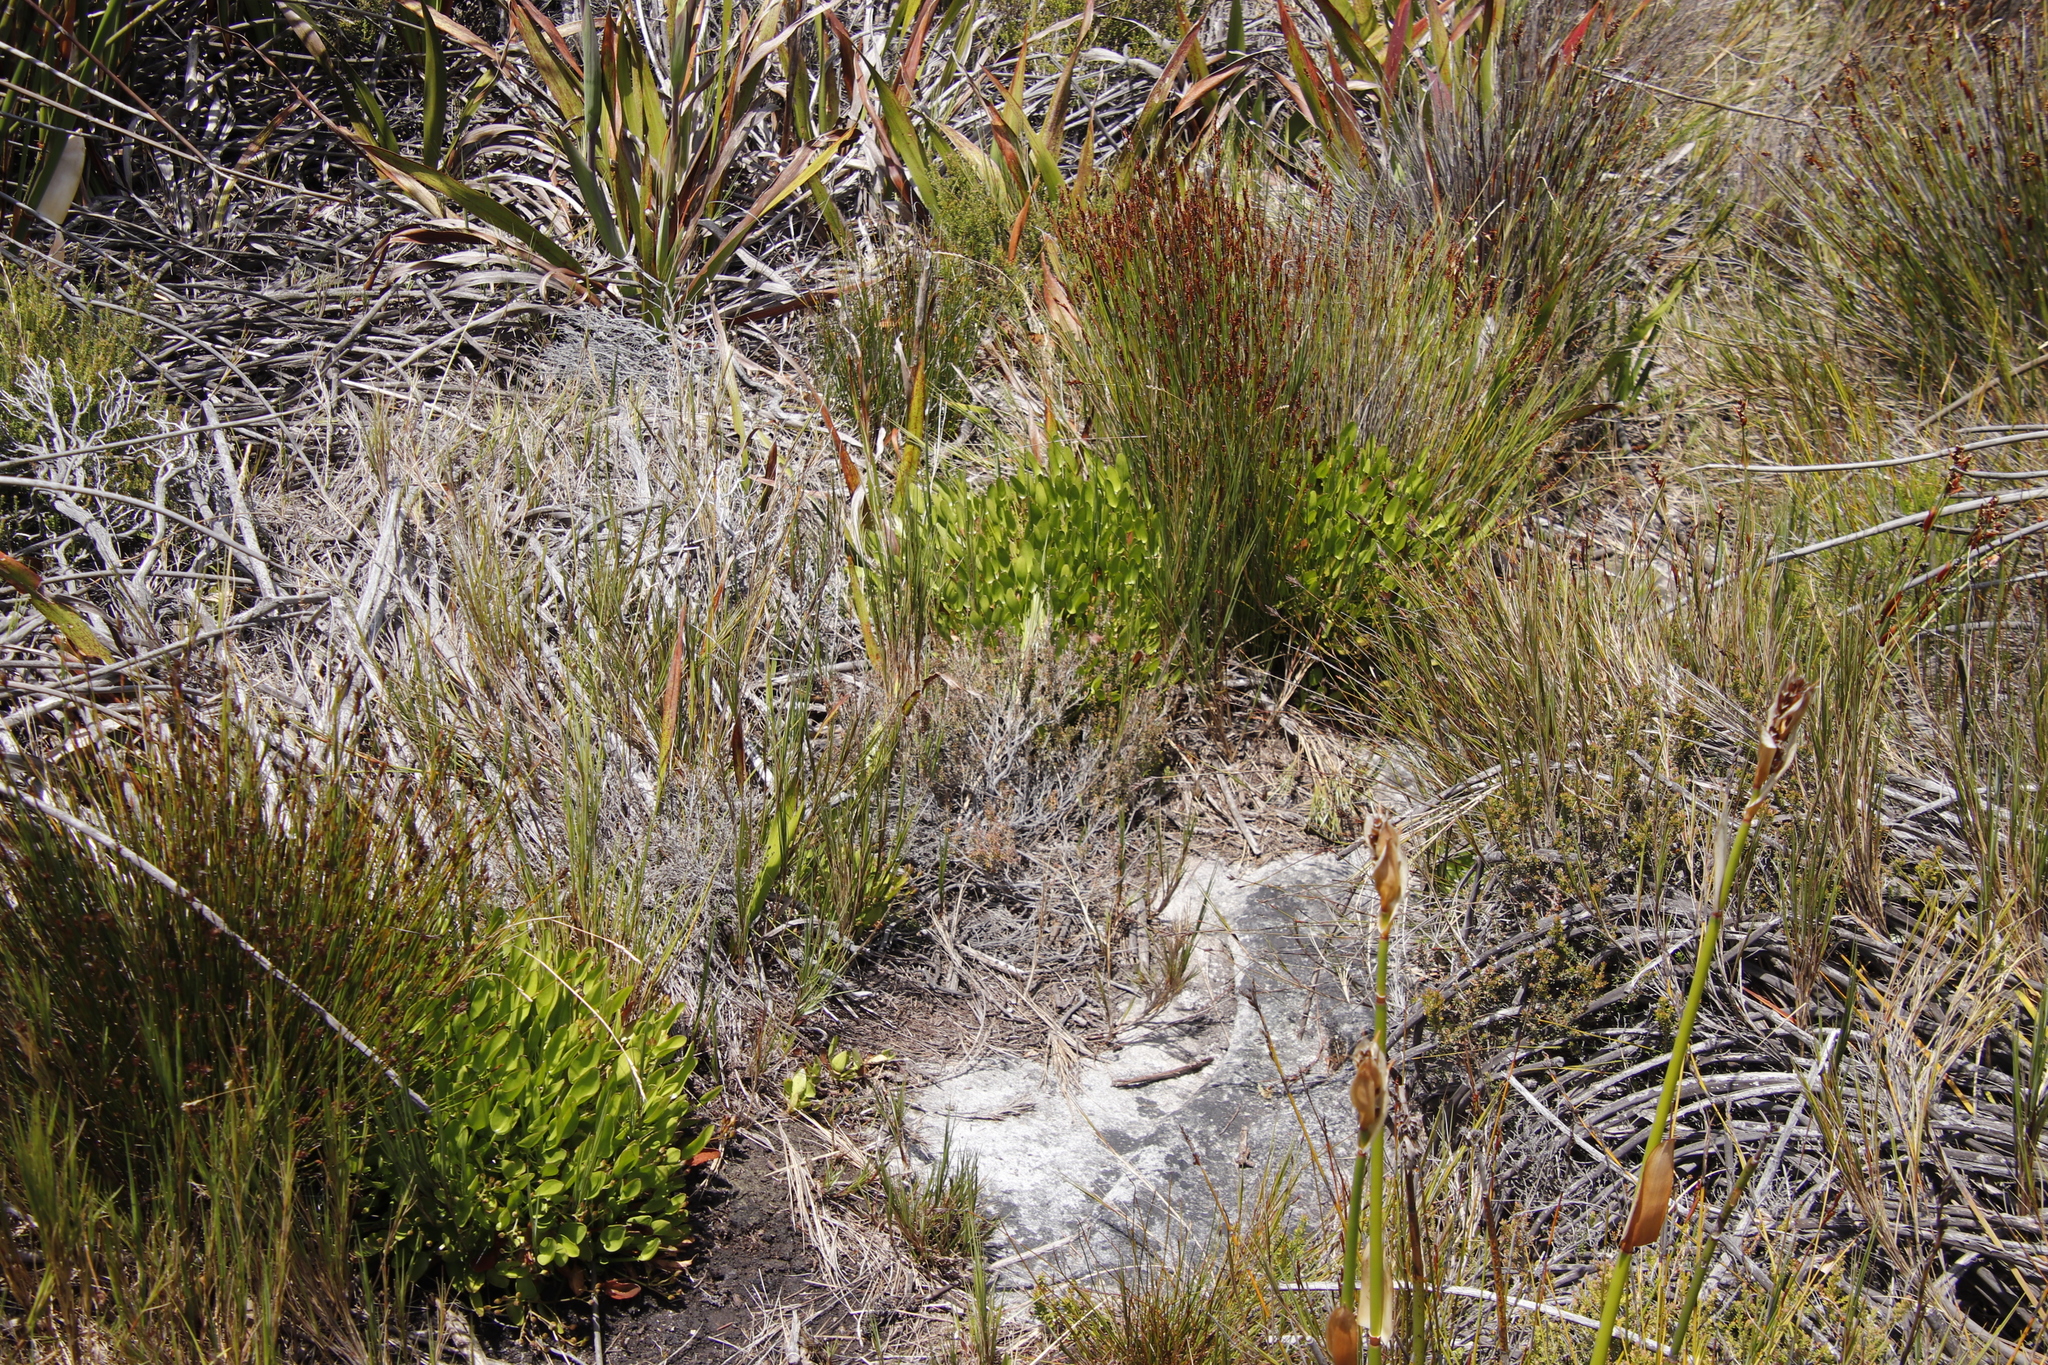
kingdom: Plantae
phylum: Tracheophyta
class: Magnoliopsida
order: Asterales
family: Menyanthaceae
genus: Villarsia
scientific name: Villarsia manningiana
